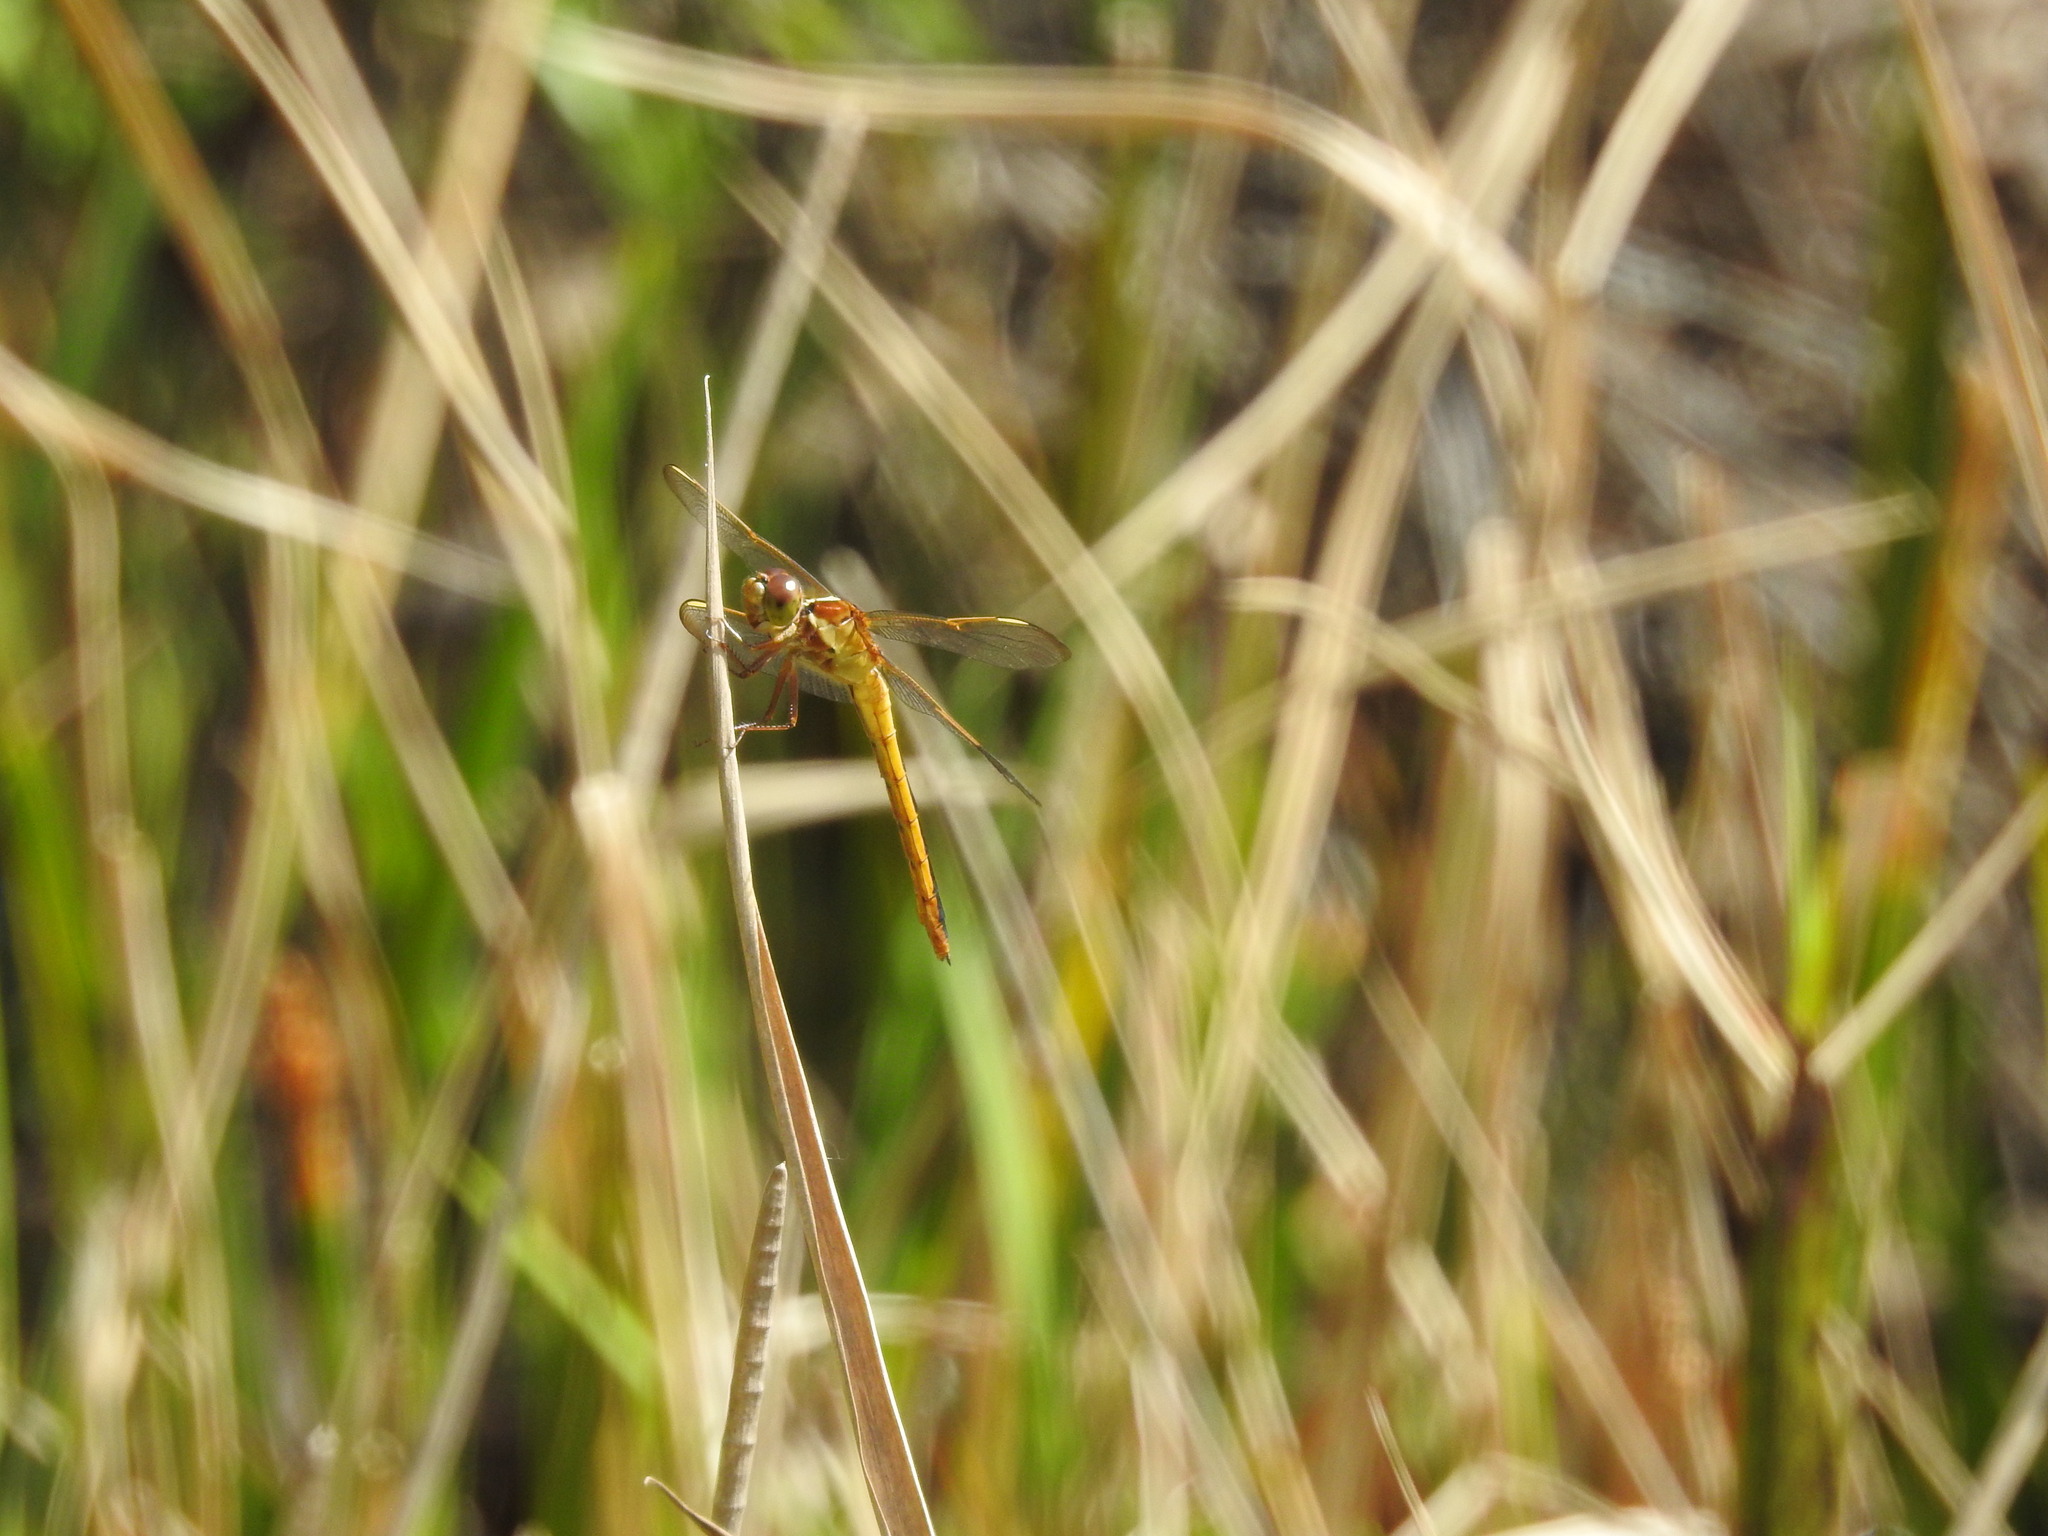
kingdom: Animalia
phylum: Arthropoda
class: Insecta
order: Odonata
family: Libellulidae
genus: Libellula
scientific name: Libellula needhami
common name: Needham's skimmer
